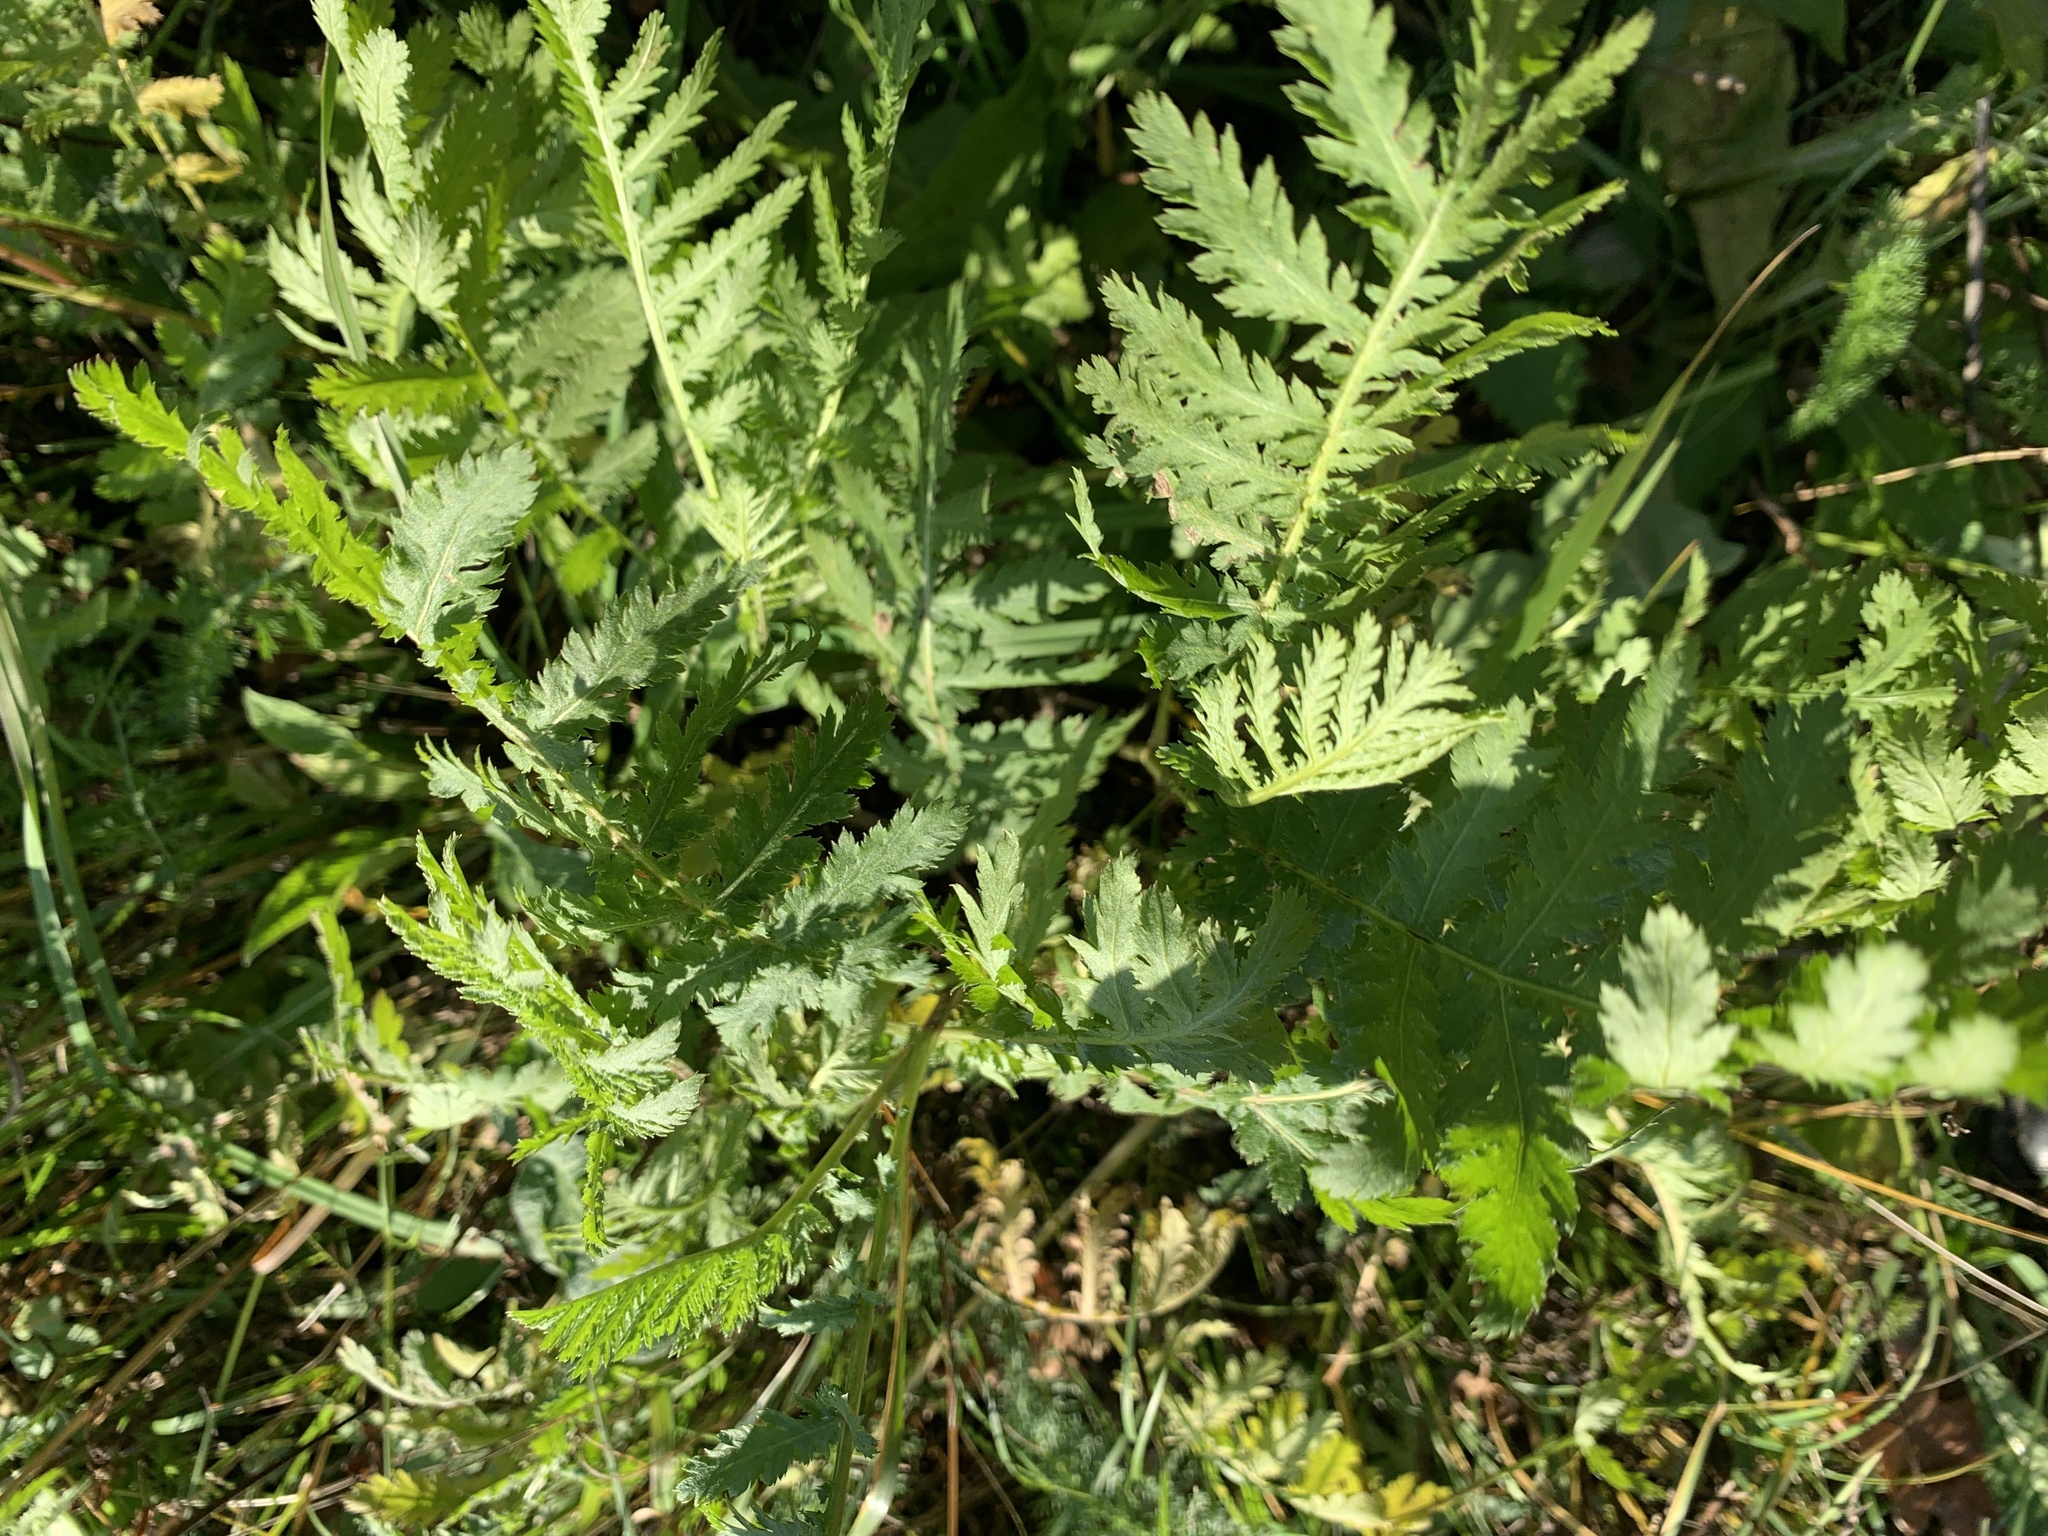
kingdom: Plantae
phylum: Tracheophyta
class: Magnoliopsida
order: Asterales
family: Asteraceae
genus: Tanacetum
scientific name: Tanacetum vulgare
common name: Common tansy
